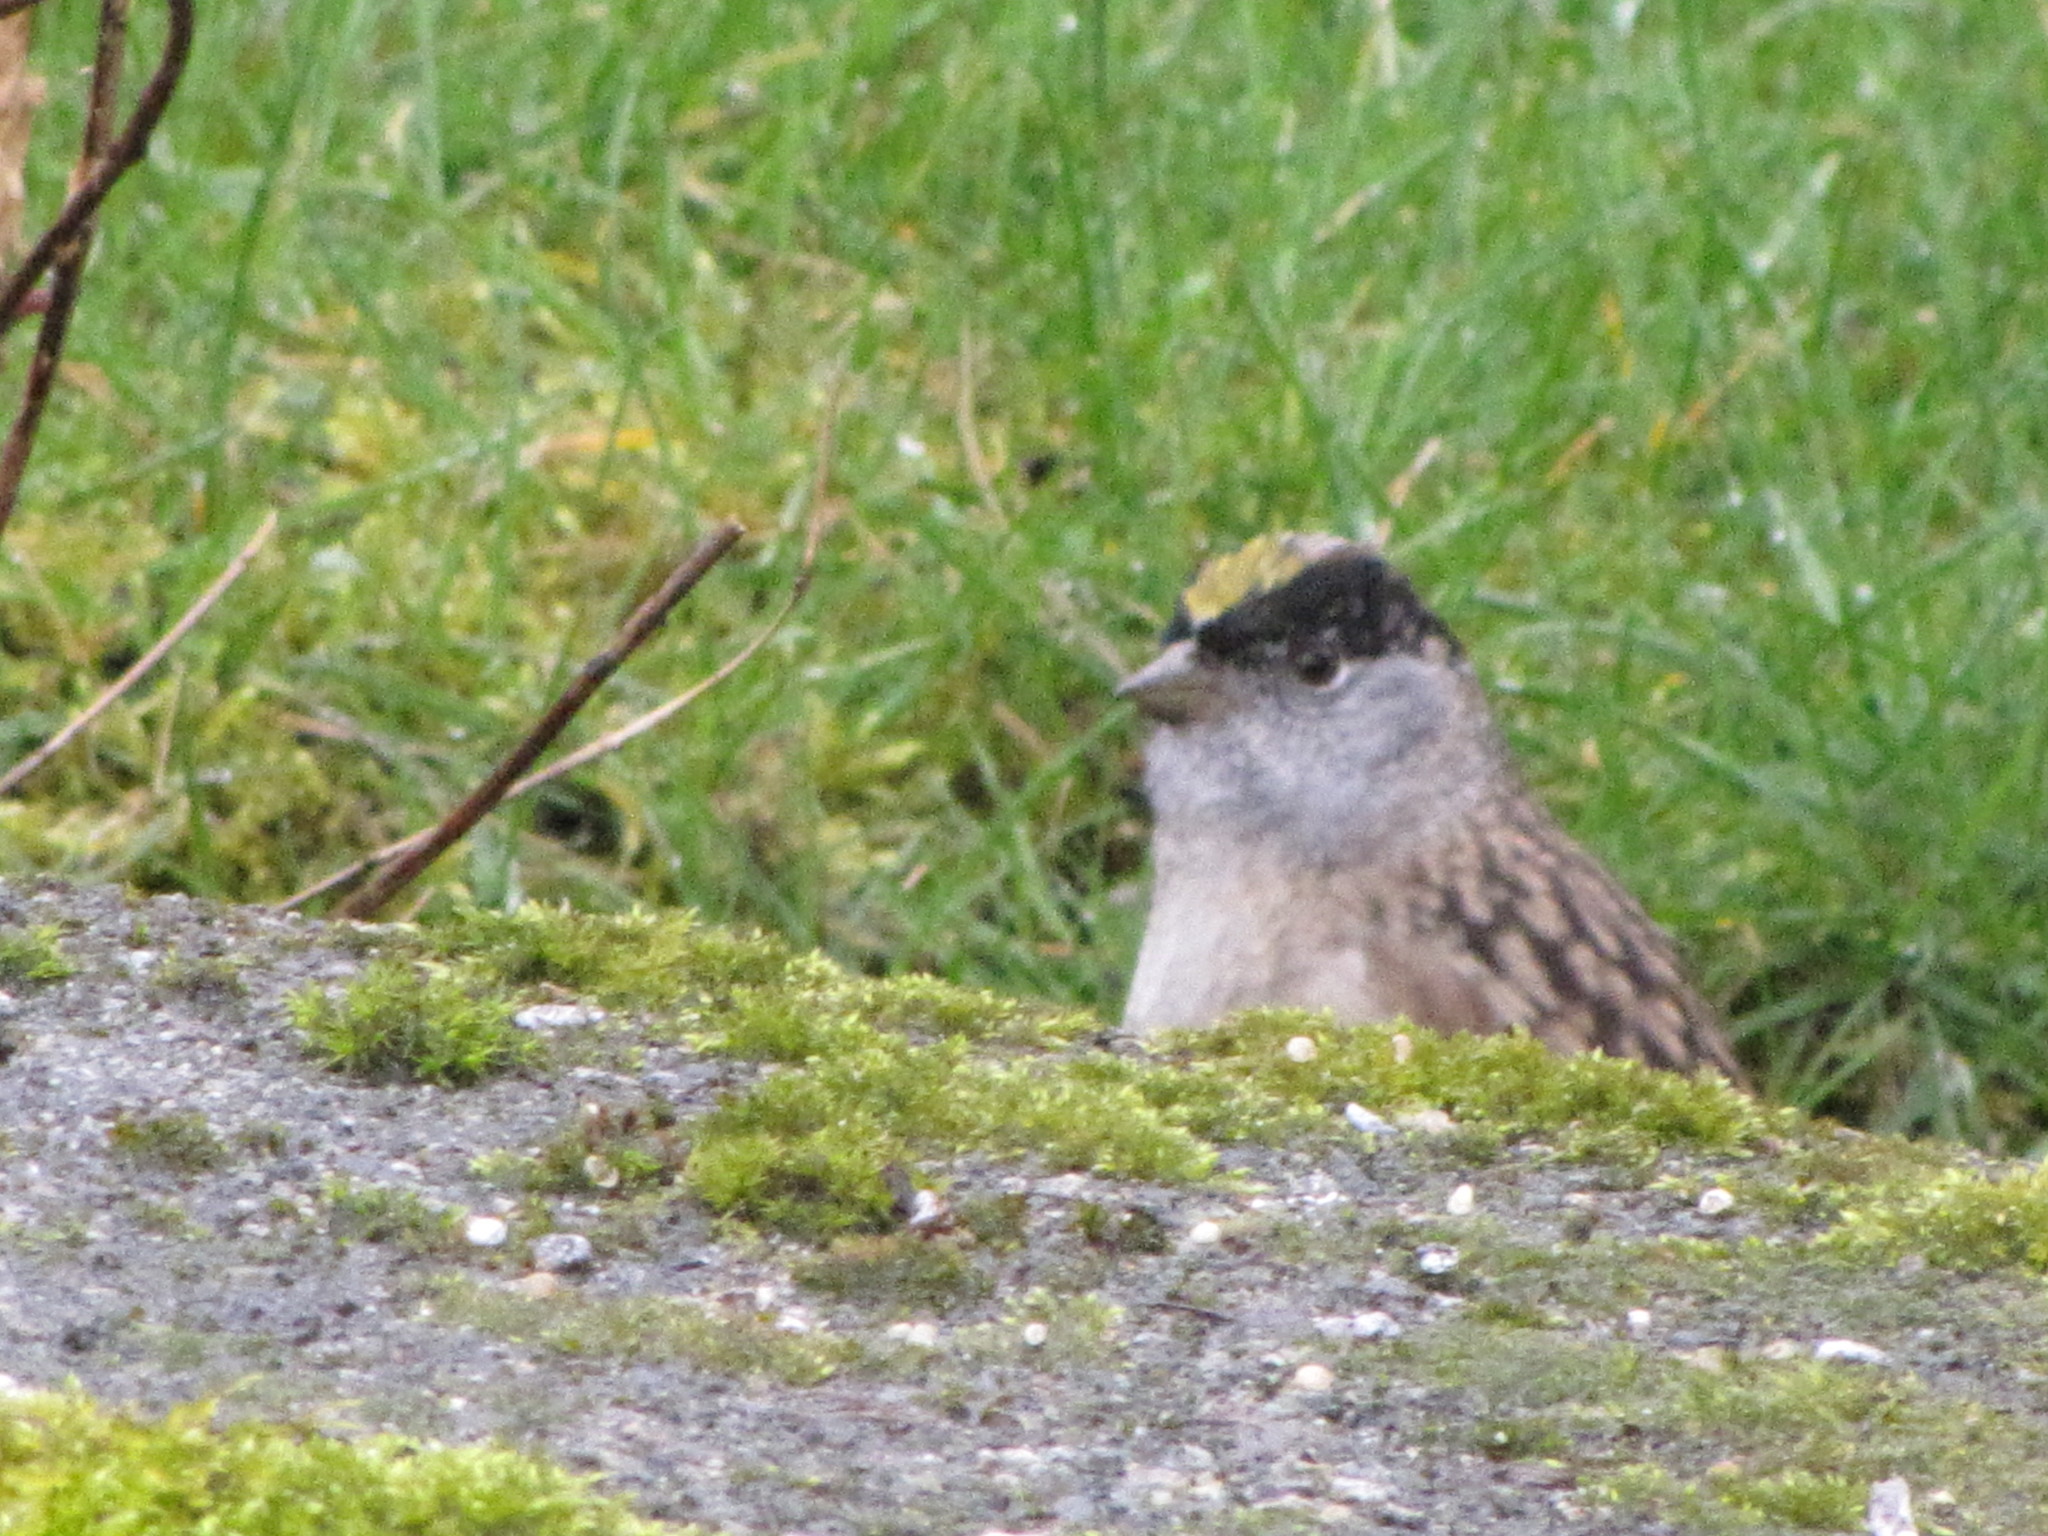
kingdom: Animalia
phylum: Chordata
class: Aves
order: Passeriformes
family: Passerellidae
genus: Zonotrichia
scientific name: Zonotrichia atricapilla
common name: Golden-crowned sparrow
